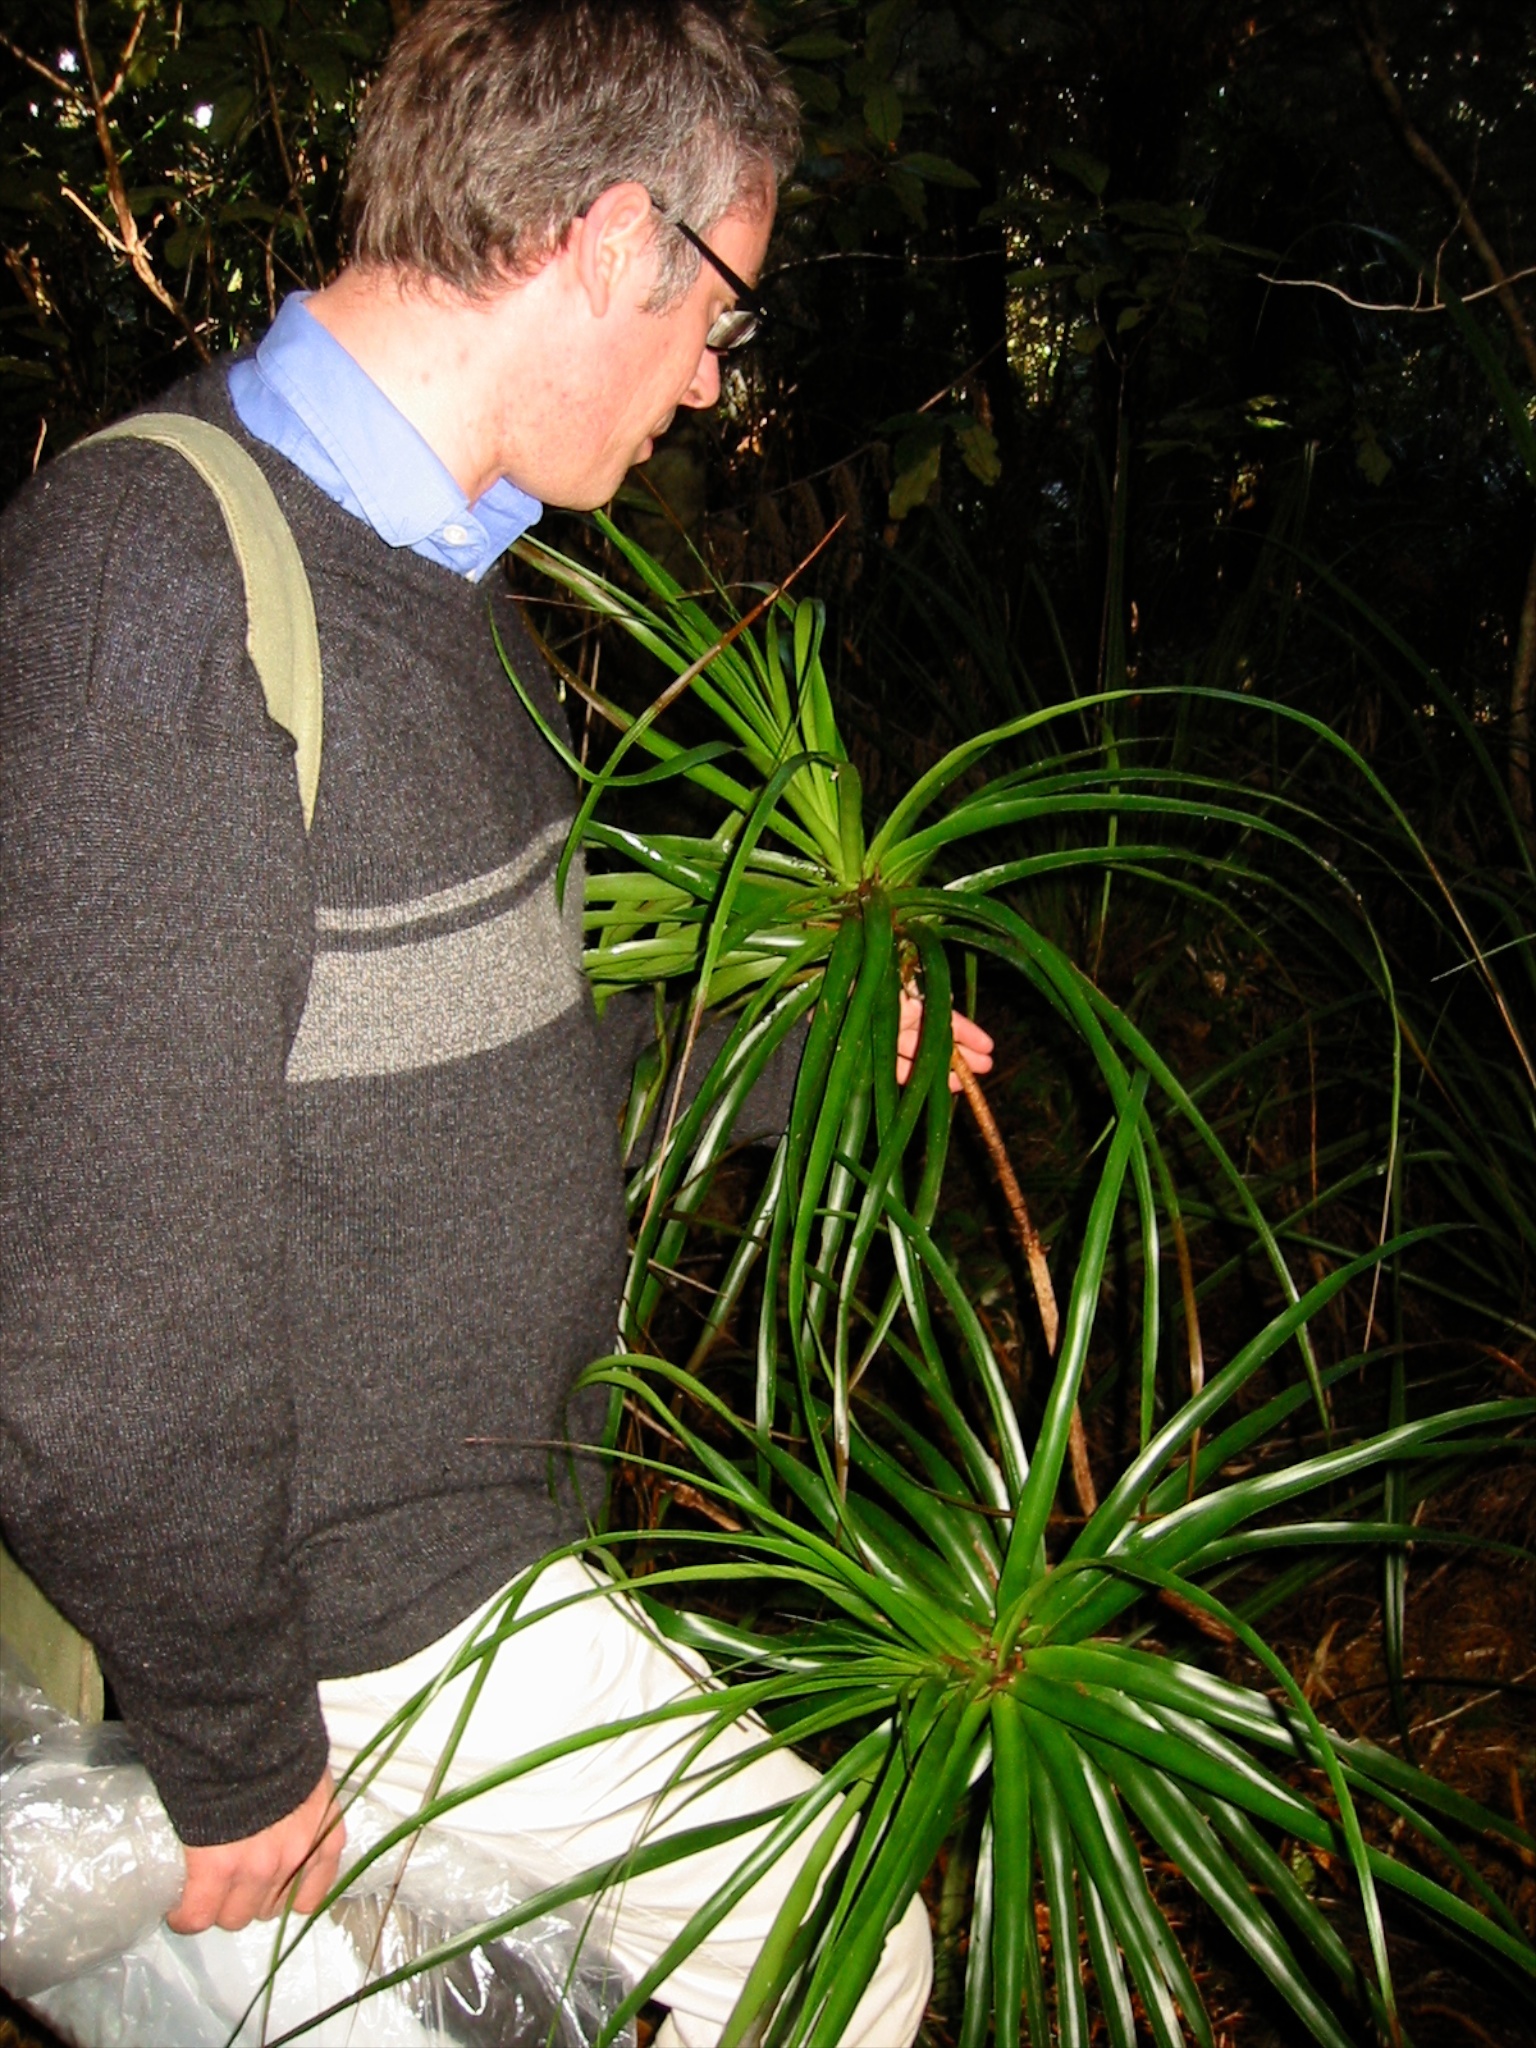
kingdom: Plantae
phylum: Tracheophyta
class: Magnoliopsida
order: Ericales
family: Ericaceae
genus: Dracophyllum
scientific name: Dracophyllum latifolium
